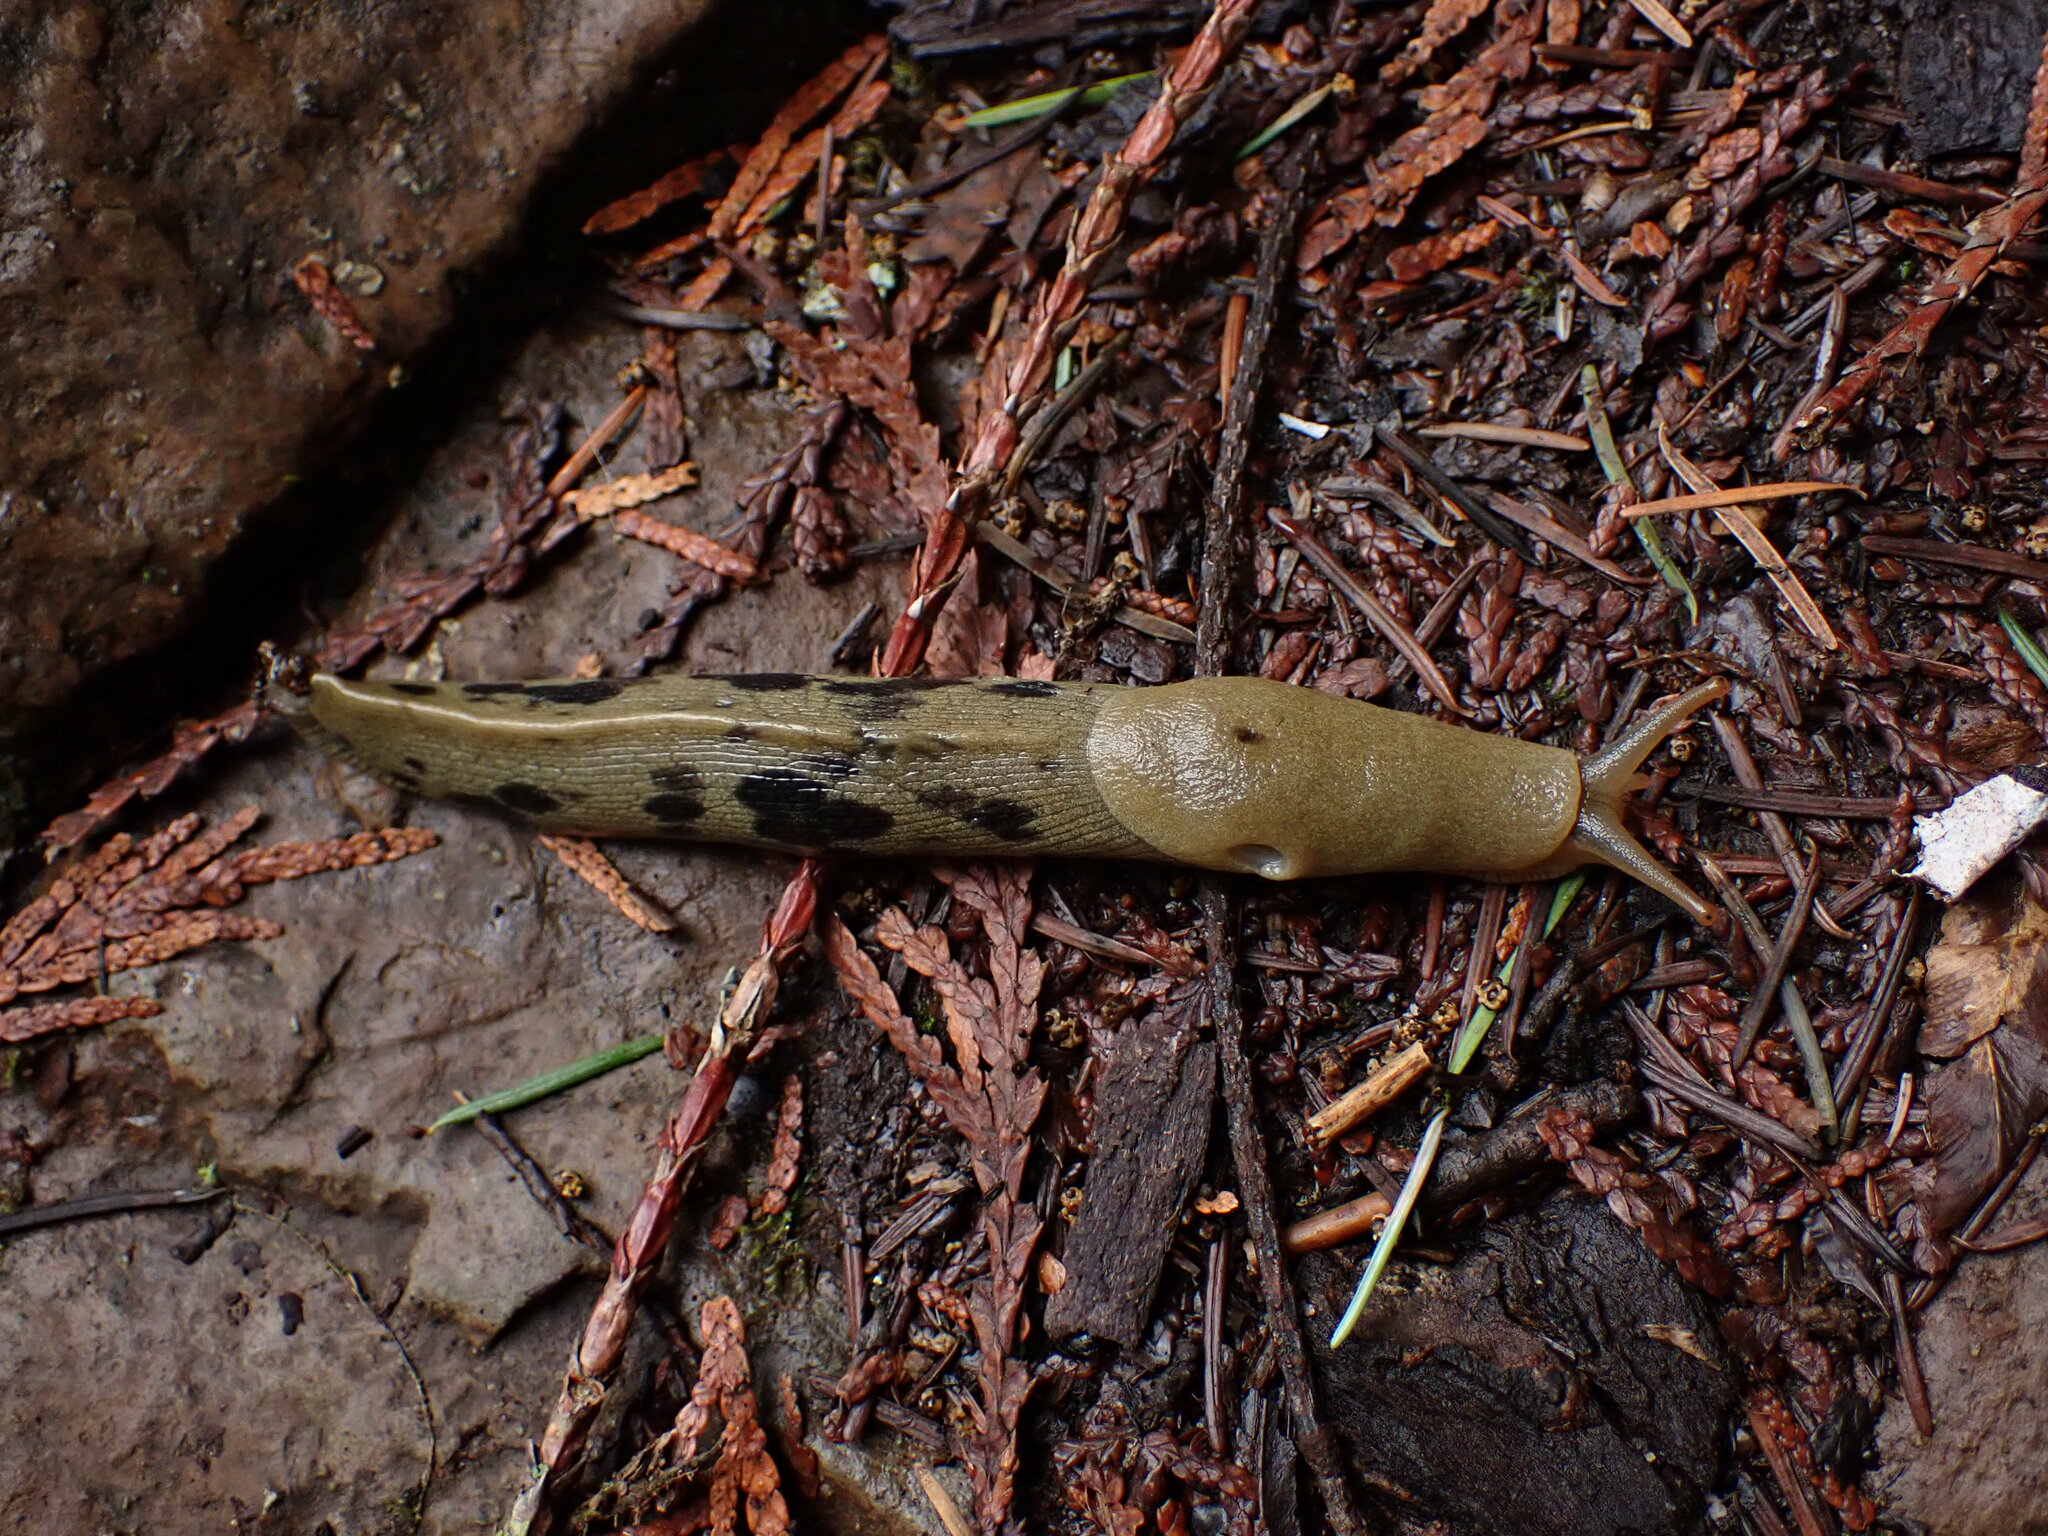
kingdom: Animalia
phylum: Mollusca
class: Gastropoda
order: Stylommatophora
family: Ariolimacidae
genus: Ariolimax
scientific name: Ariolimax columbianus
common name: Pacific banana slug
